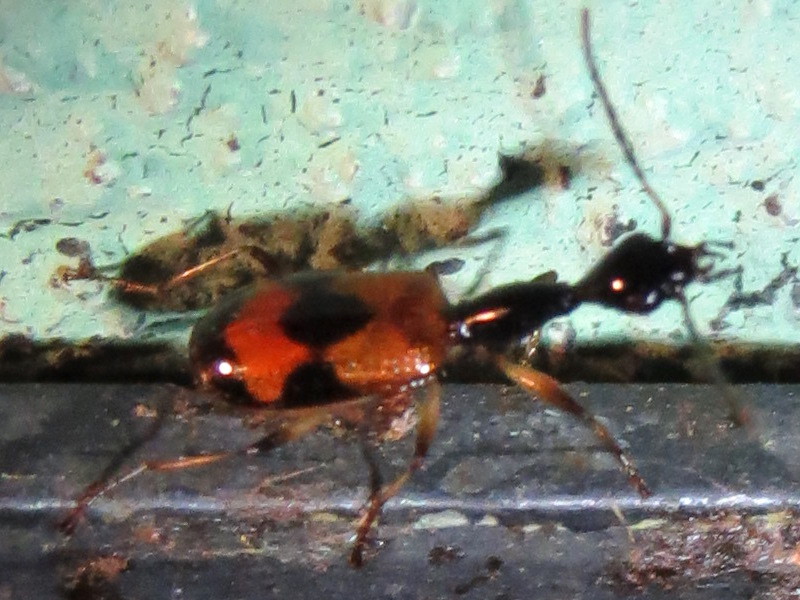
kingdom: Animalia
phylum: Arthropoda
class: Insecta
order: Coleoptera
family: Carabidae
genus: Colliuris
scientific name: Colliuris pensylvanica
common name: Long-necked ground beetle
